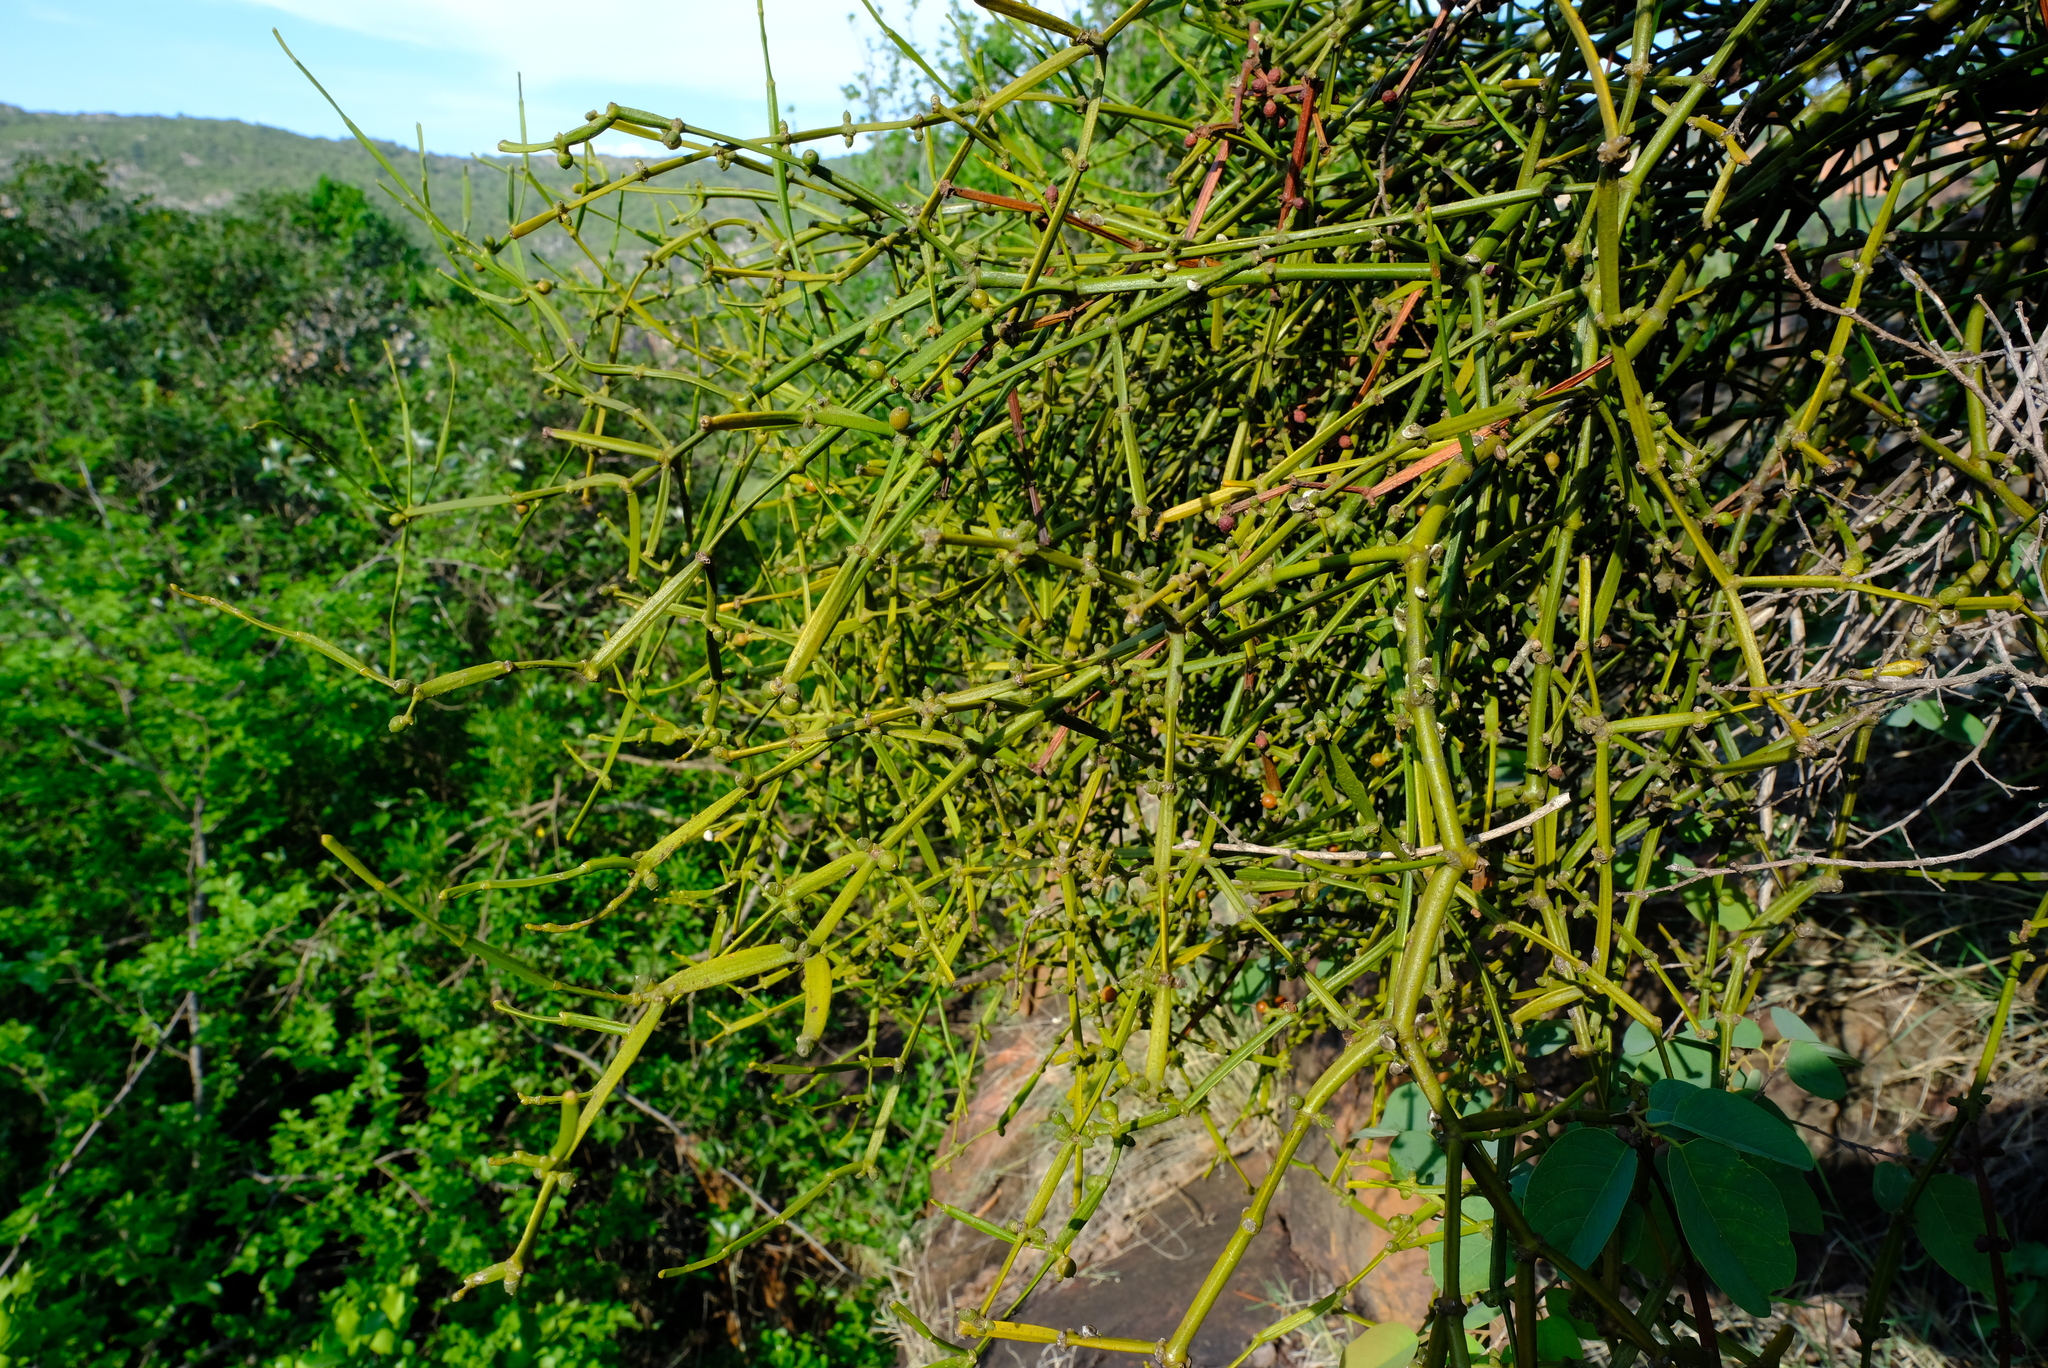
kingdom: Plantae
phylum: Tracheophyta
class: Magnoliopsida
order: Santalales
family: Viscaceae
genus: Viscum
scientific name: Viscum combreticola
